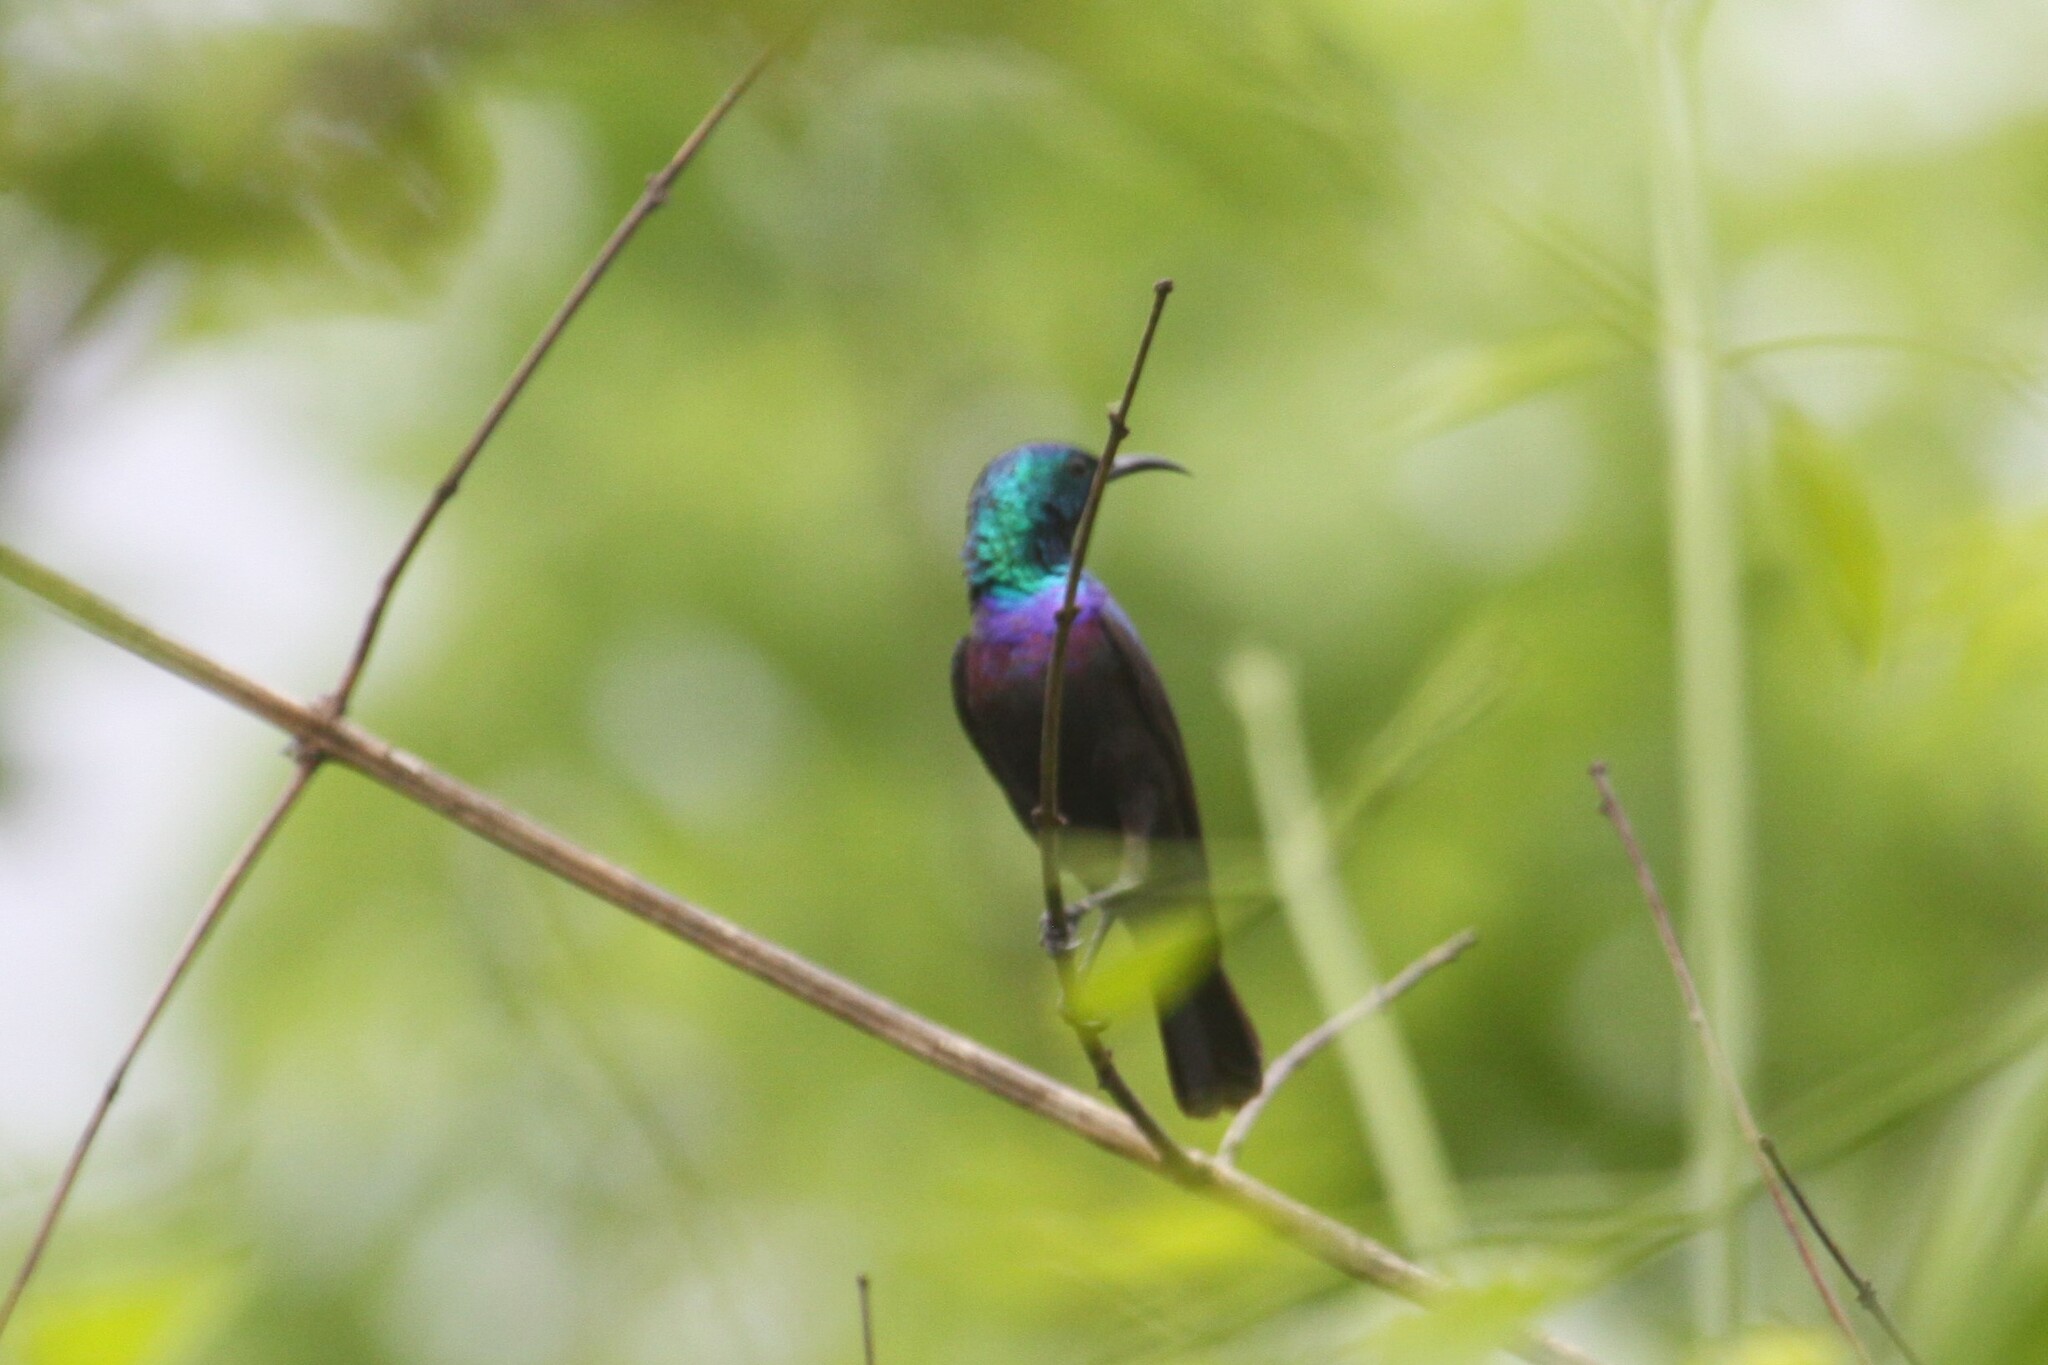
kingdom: Animalia
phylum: Chordata
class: Aves
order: Passeriformes
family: Nectariniidae
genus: Cinnyris
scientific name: Cinnyris bifasciatus
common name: Purple-banded sunbird
